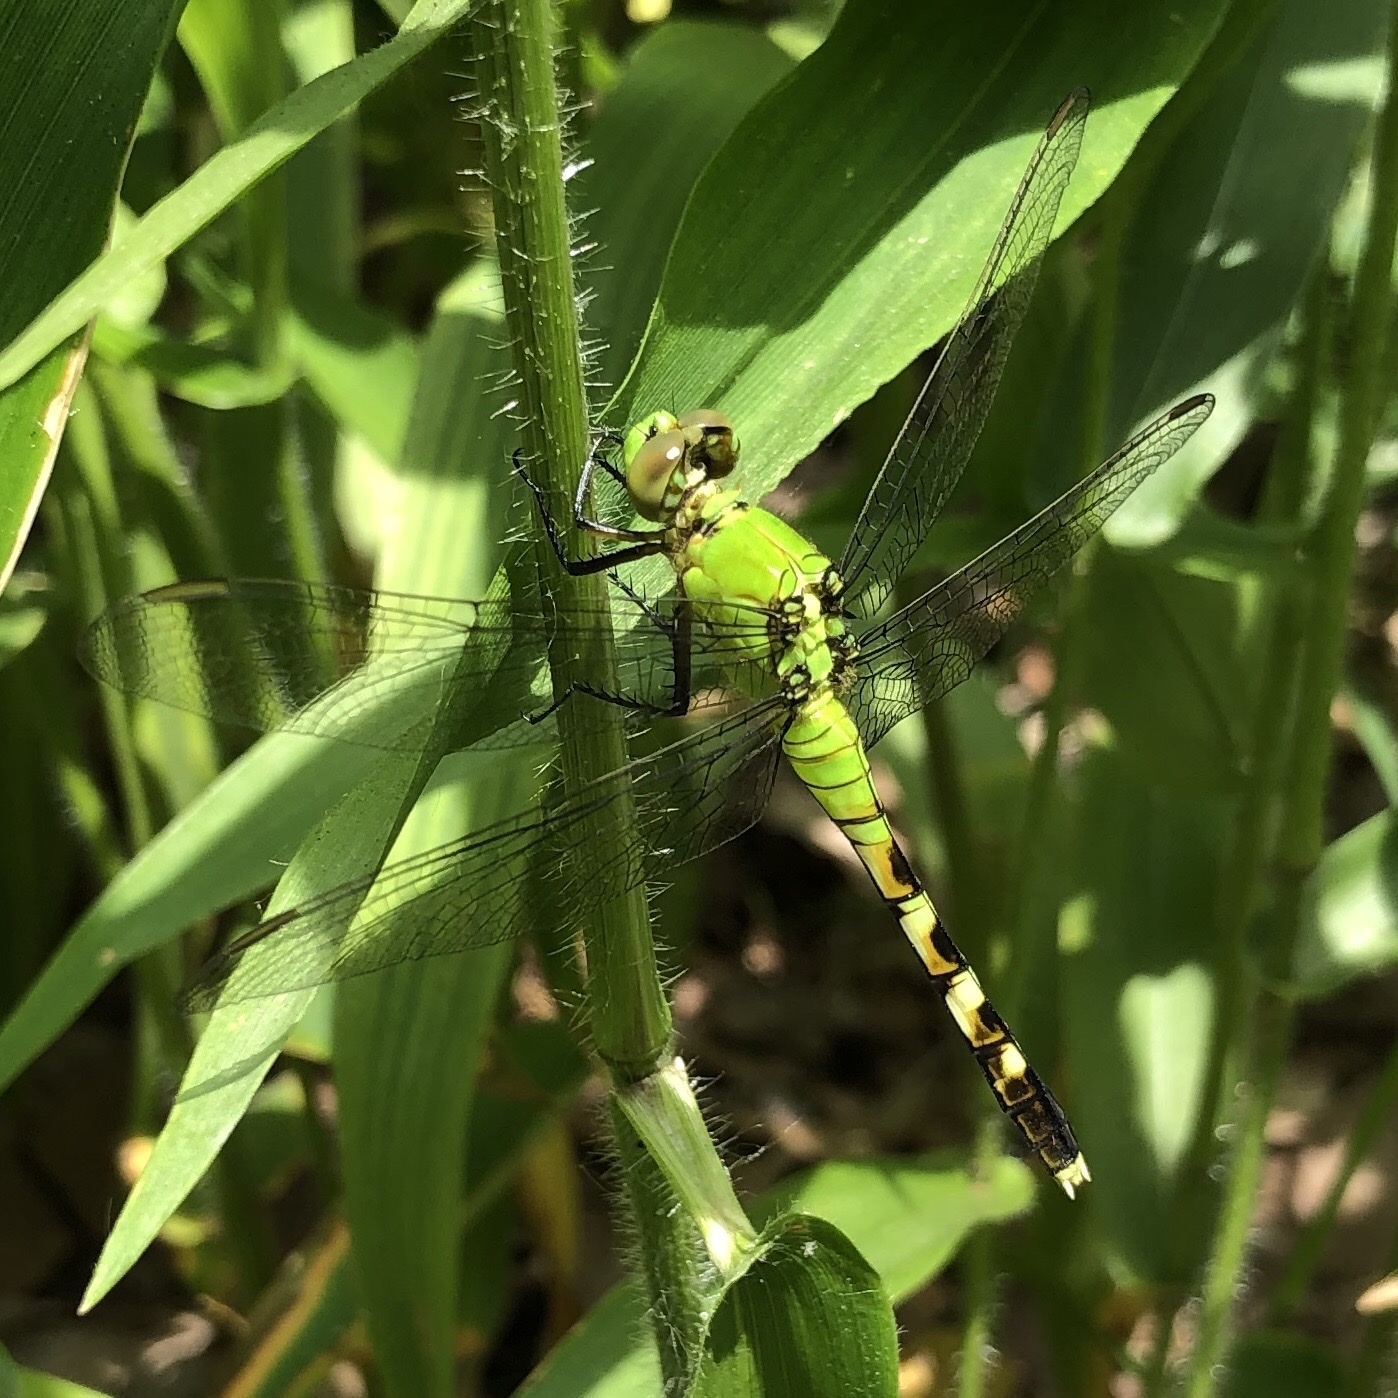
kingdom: Animalia
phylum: Arthropoda
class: Insecta
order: Odonata
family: Libellulidae
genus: Erythemis
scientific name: Erythemis simplicicollis
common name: Eastern pondhawk
